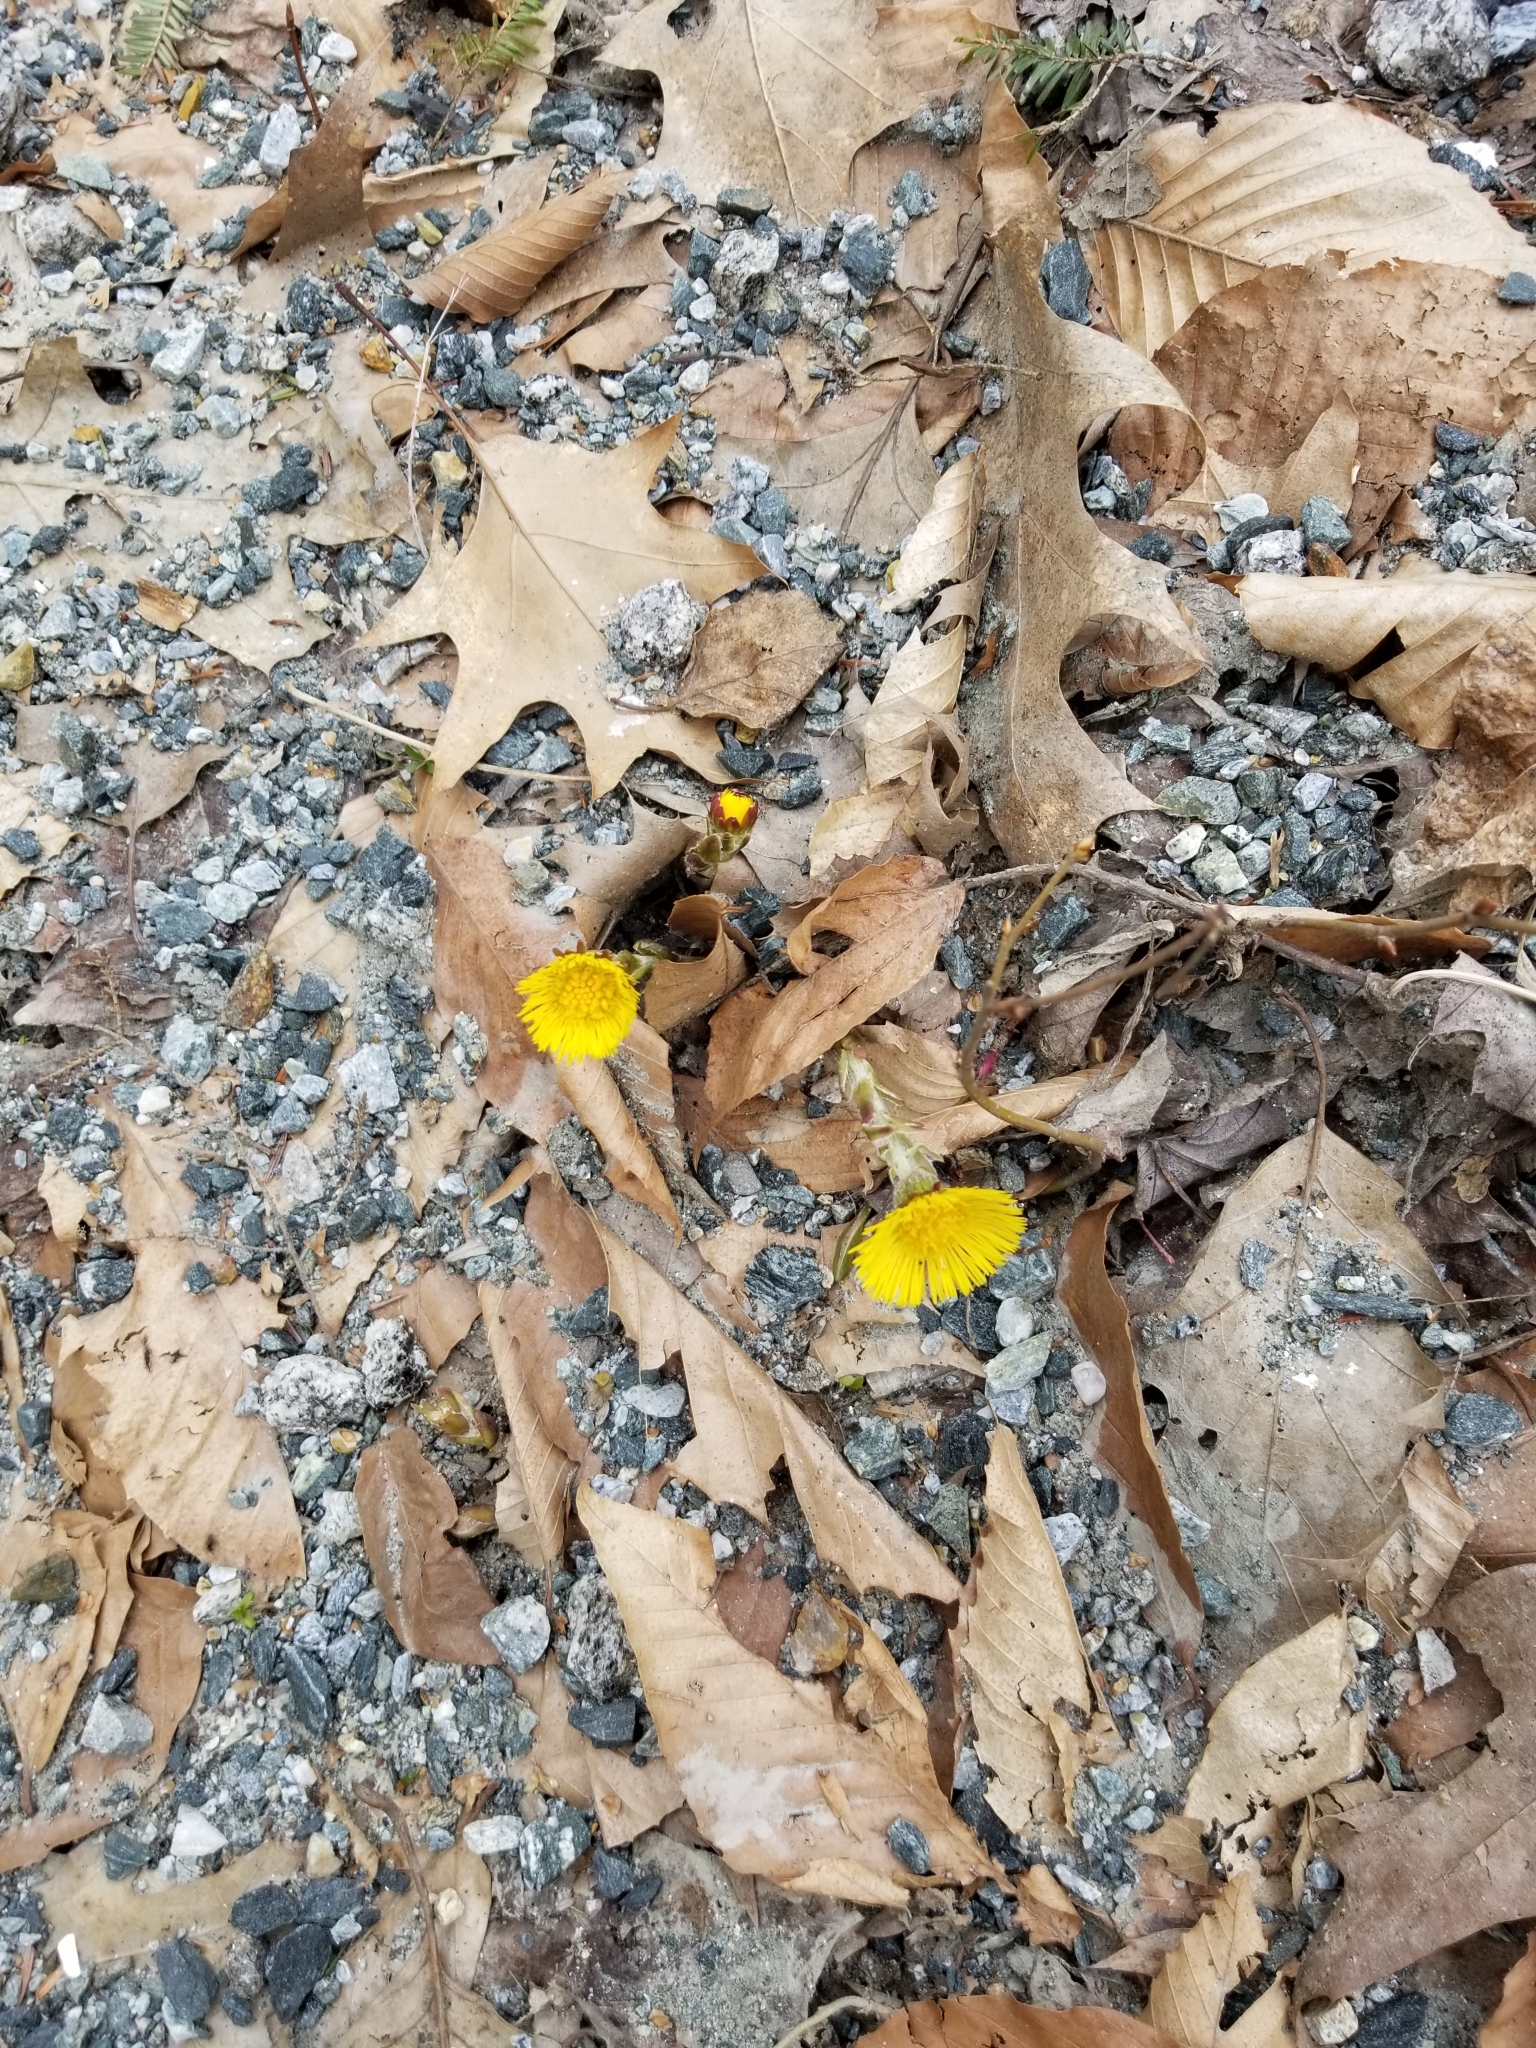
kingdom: Plantae
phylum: Tracheophyta
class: Magnoliopsida
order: Asterales
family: Asteraceae
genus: Tussilago
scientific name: Tussilago farfara
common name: Coltsfoot
